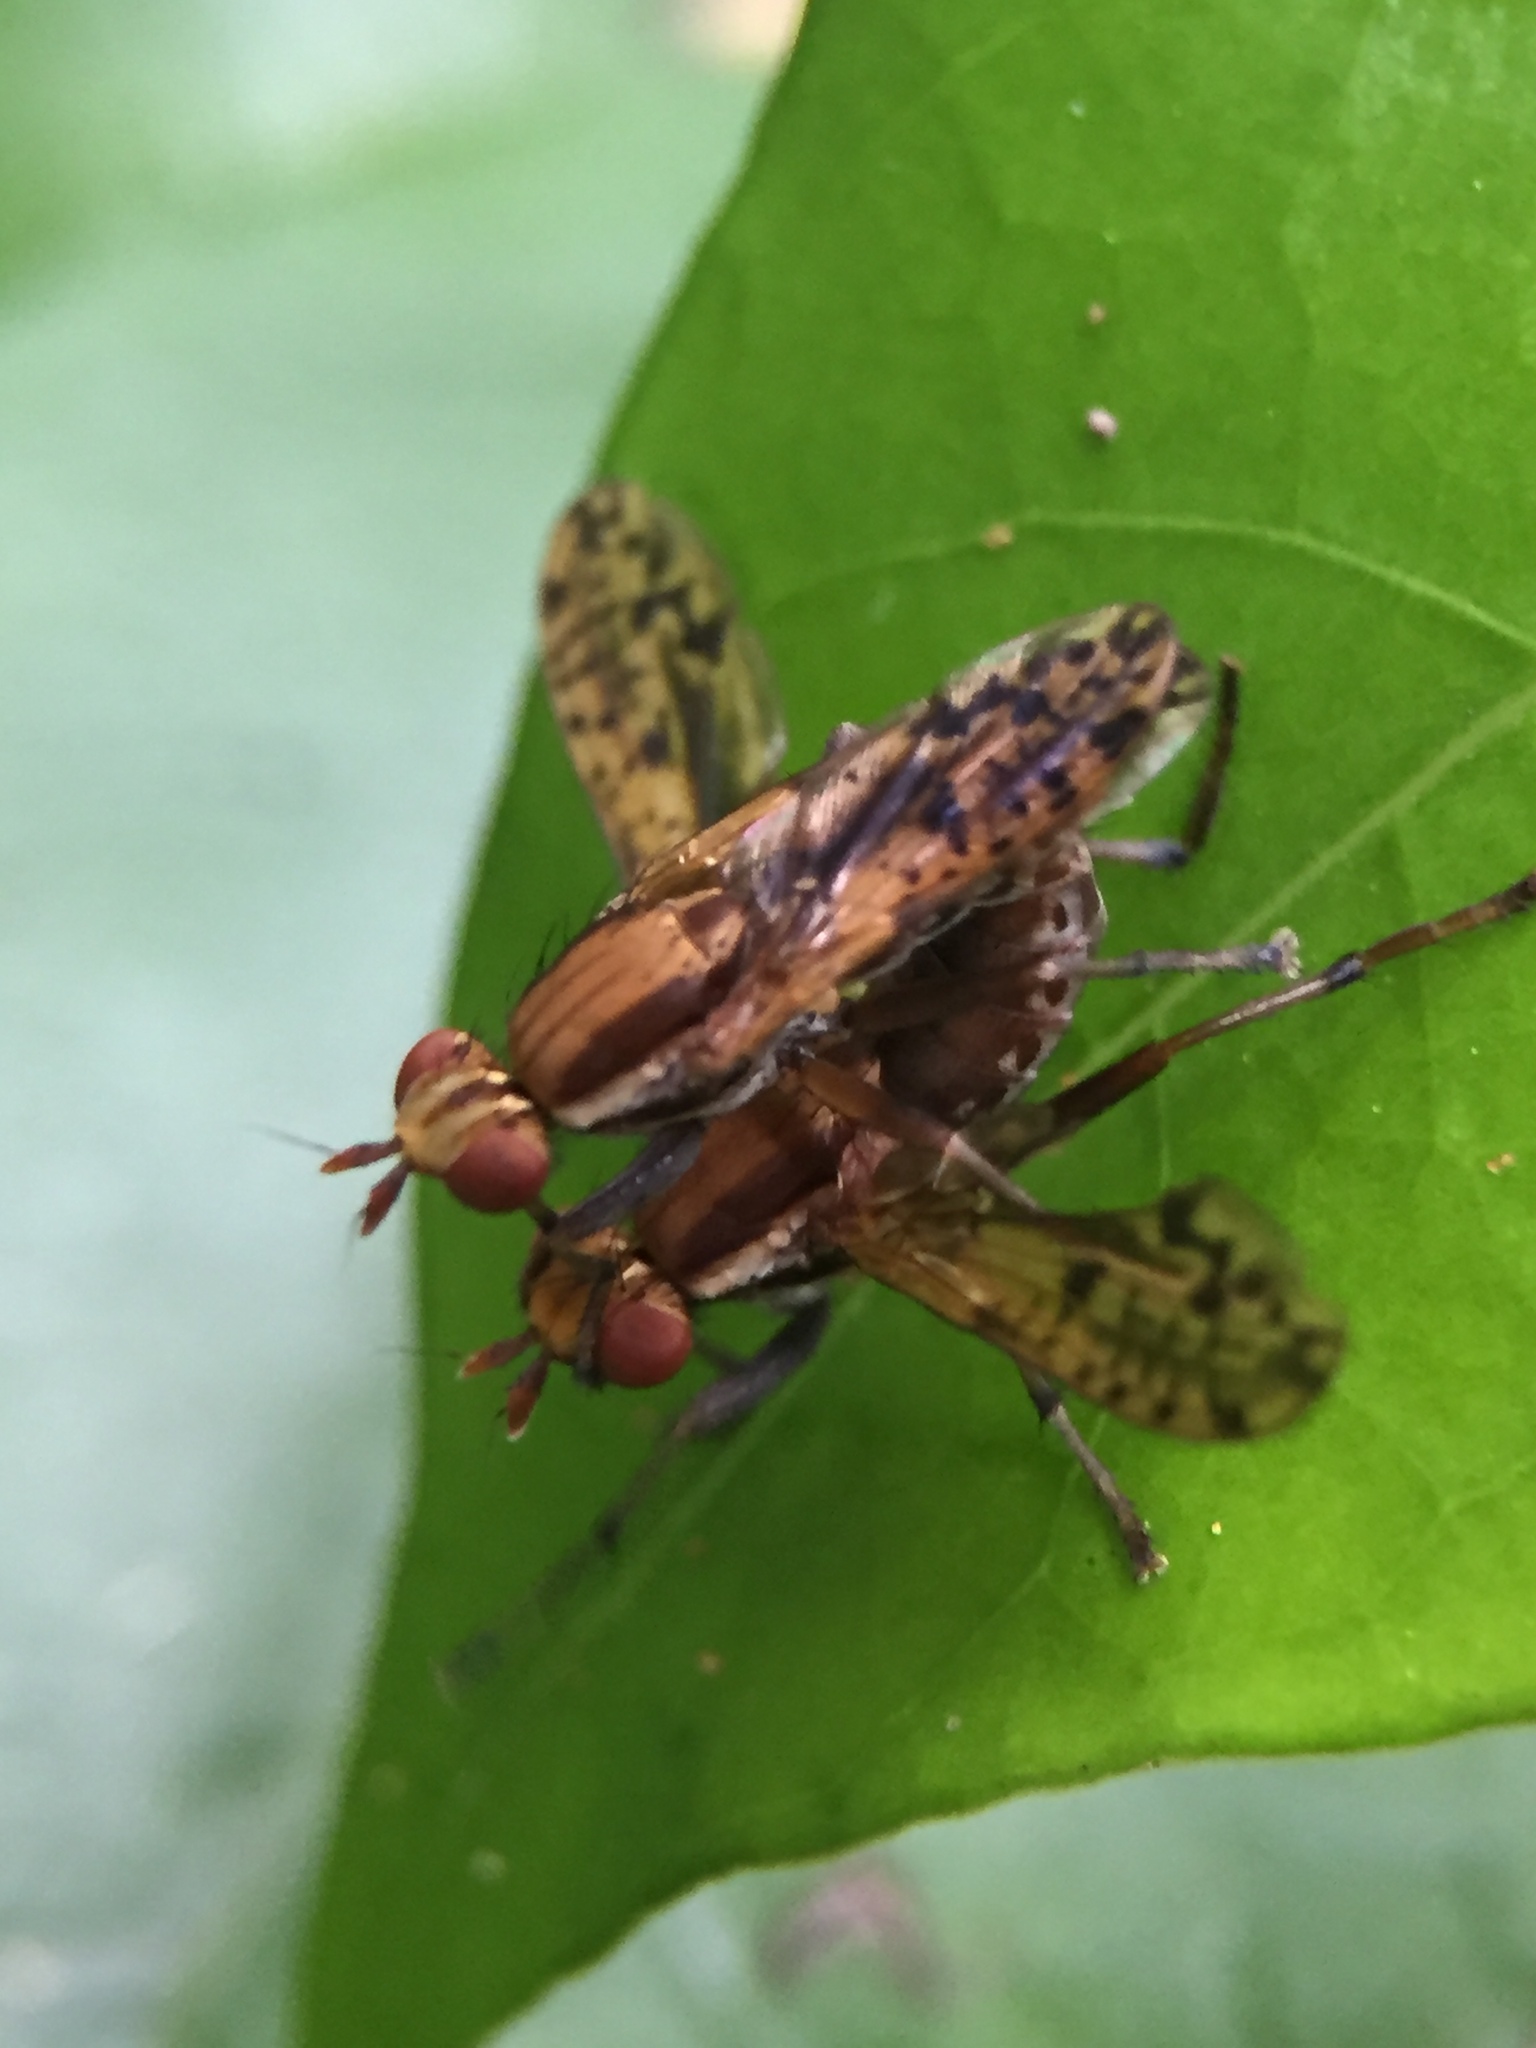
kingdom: Animalia
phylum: Arthropoda
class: Insecta
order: Diptera
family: Sciomyzidae
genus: Neolimnia
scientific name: Neolimnia tranquilla
